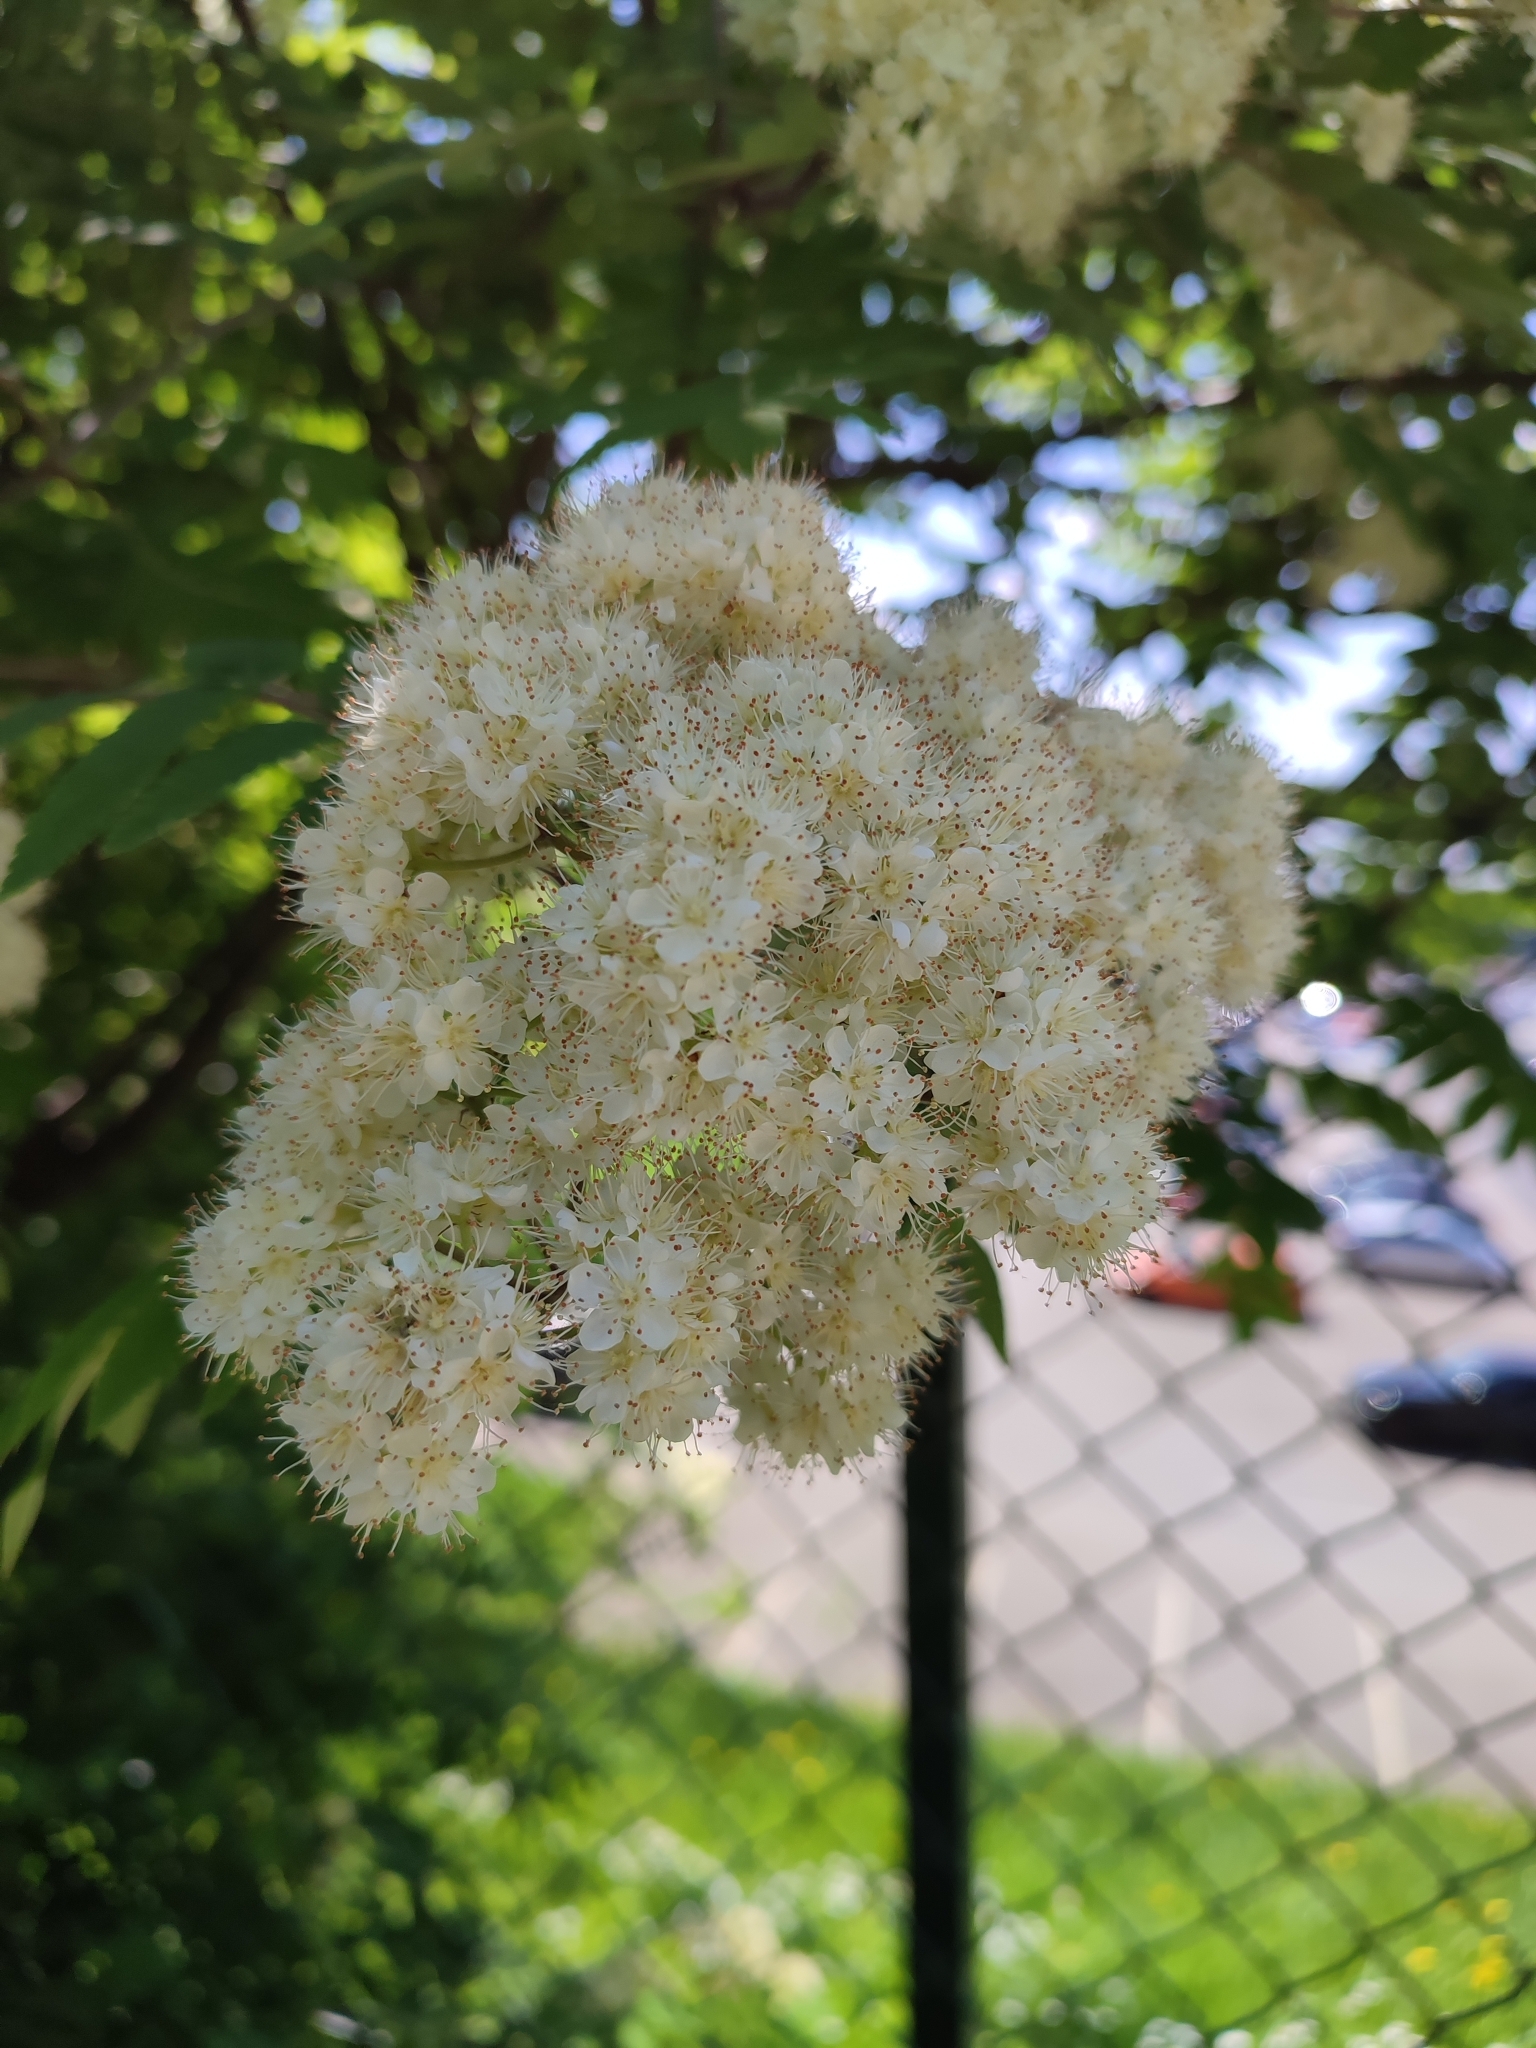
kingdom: Plantae
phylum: Tracheophyta
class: Magnoliopsida
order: Rosales
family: Rosaceae
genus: Sorbus
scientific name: Sorbus aucuparia
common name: Rowan
